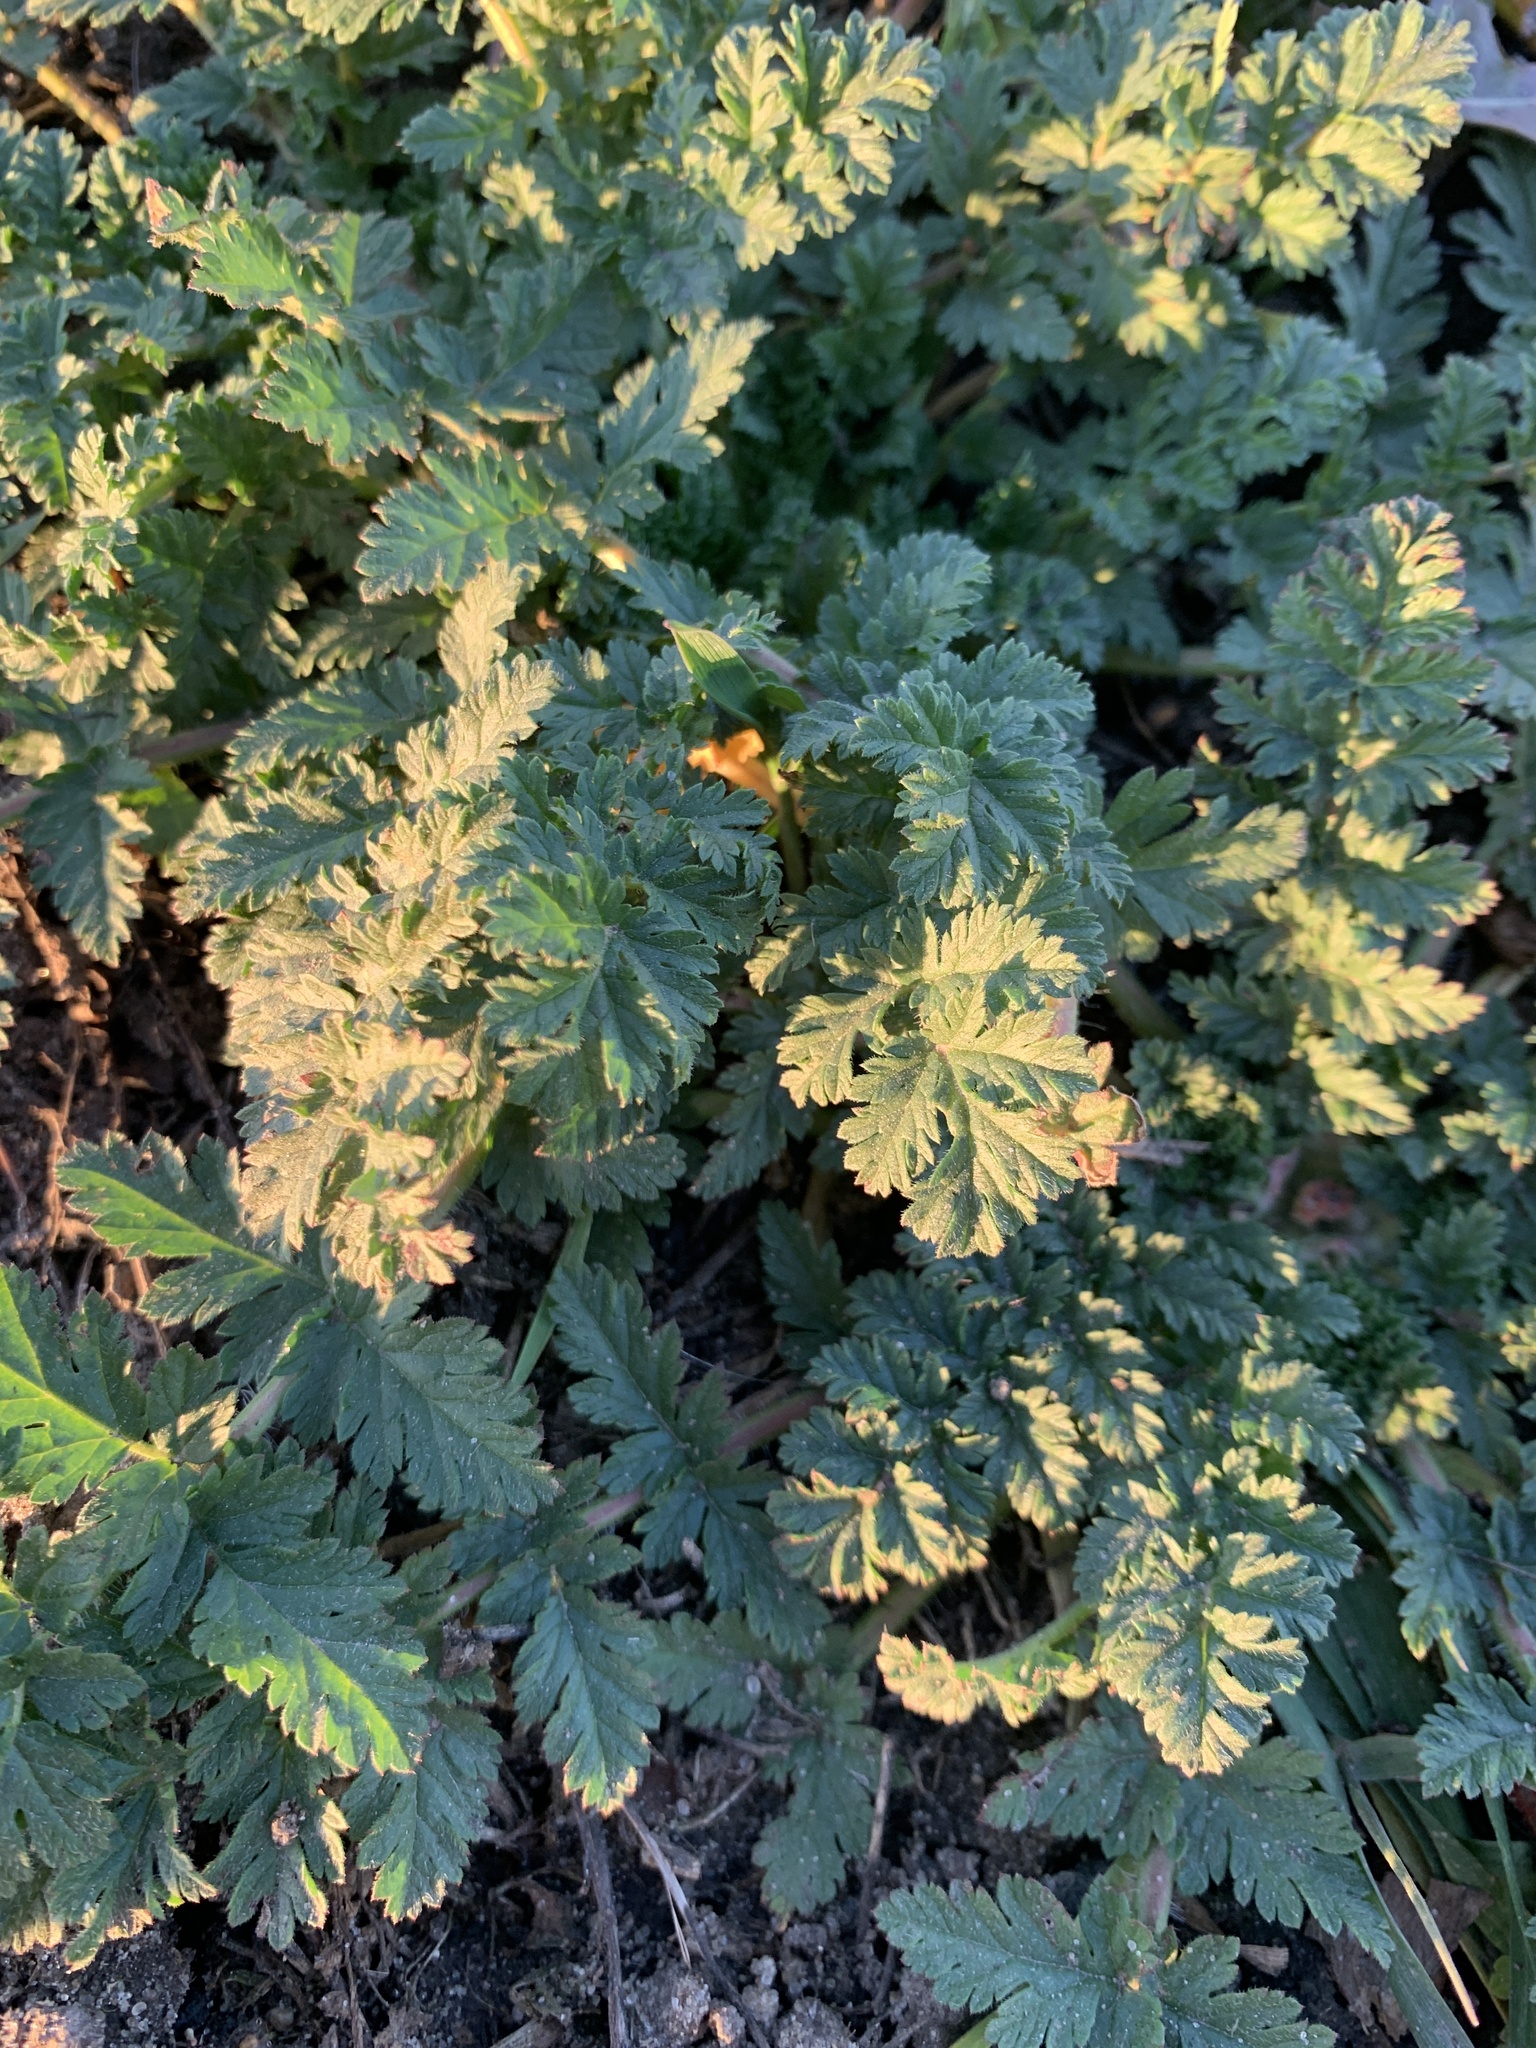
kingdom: Plantae
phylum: Tracheophyta
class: Magnoliopsida
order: Geraniales
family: Geraniaceae
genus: Erodium
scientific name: Erodium cicutarium
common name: Common stork's-bill
